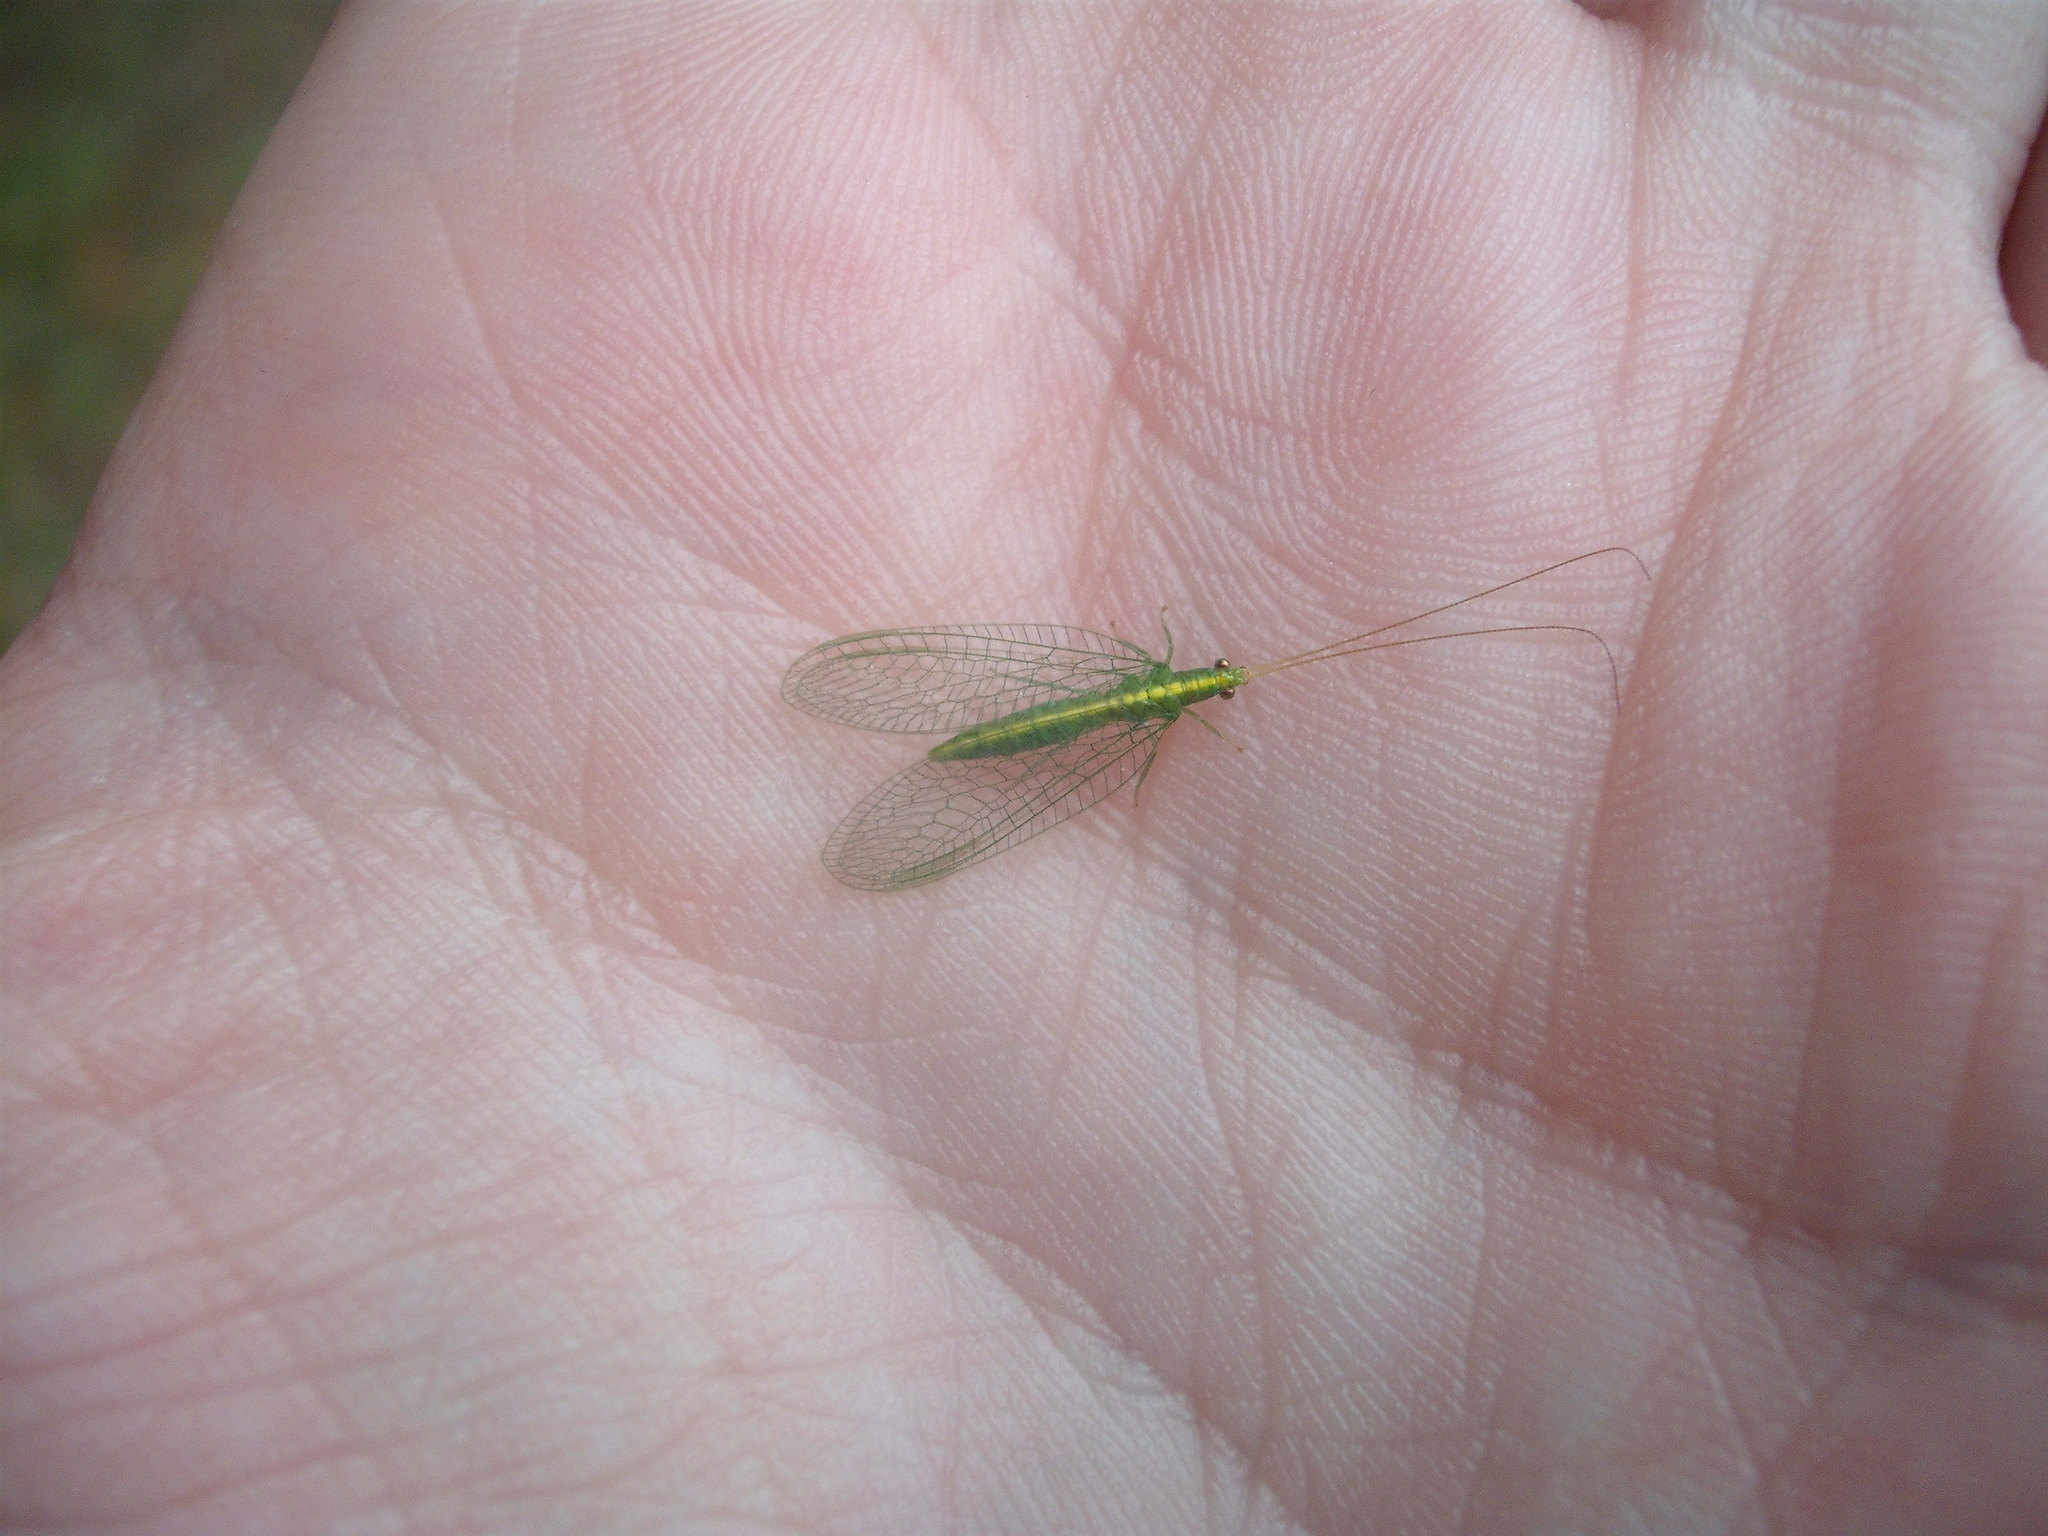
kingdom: Animalia
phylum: Arthropoda
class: Insecta
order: Neuroptera
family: Chrysopidae
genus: Mallada
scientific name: Mallada basalis
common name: Green lacewing
